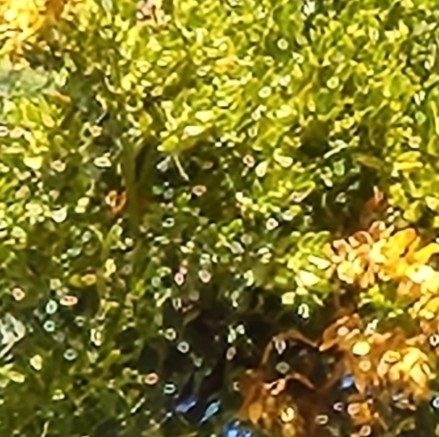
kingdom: Plantae
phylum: Tracheophyta
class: Magnoliopsida
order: Santalales
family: Viscaceae
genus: Phoradendron
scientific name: Phoradendron pauciflorum
